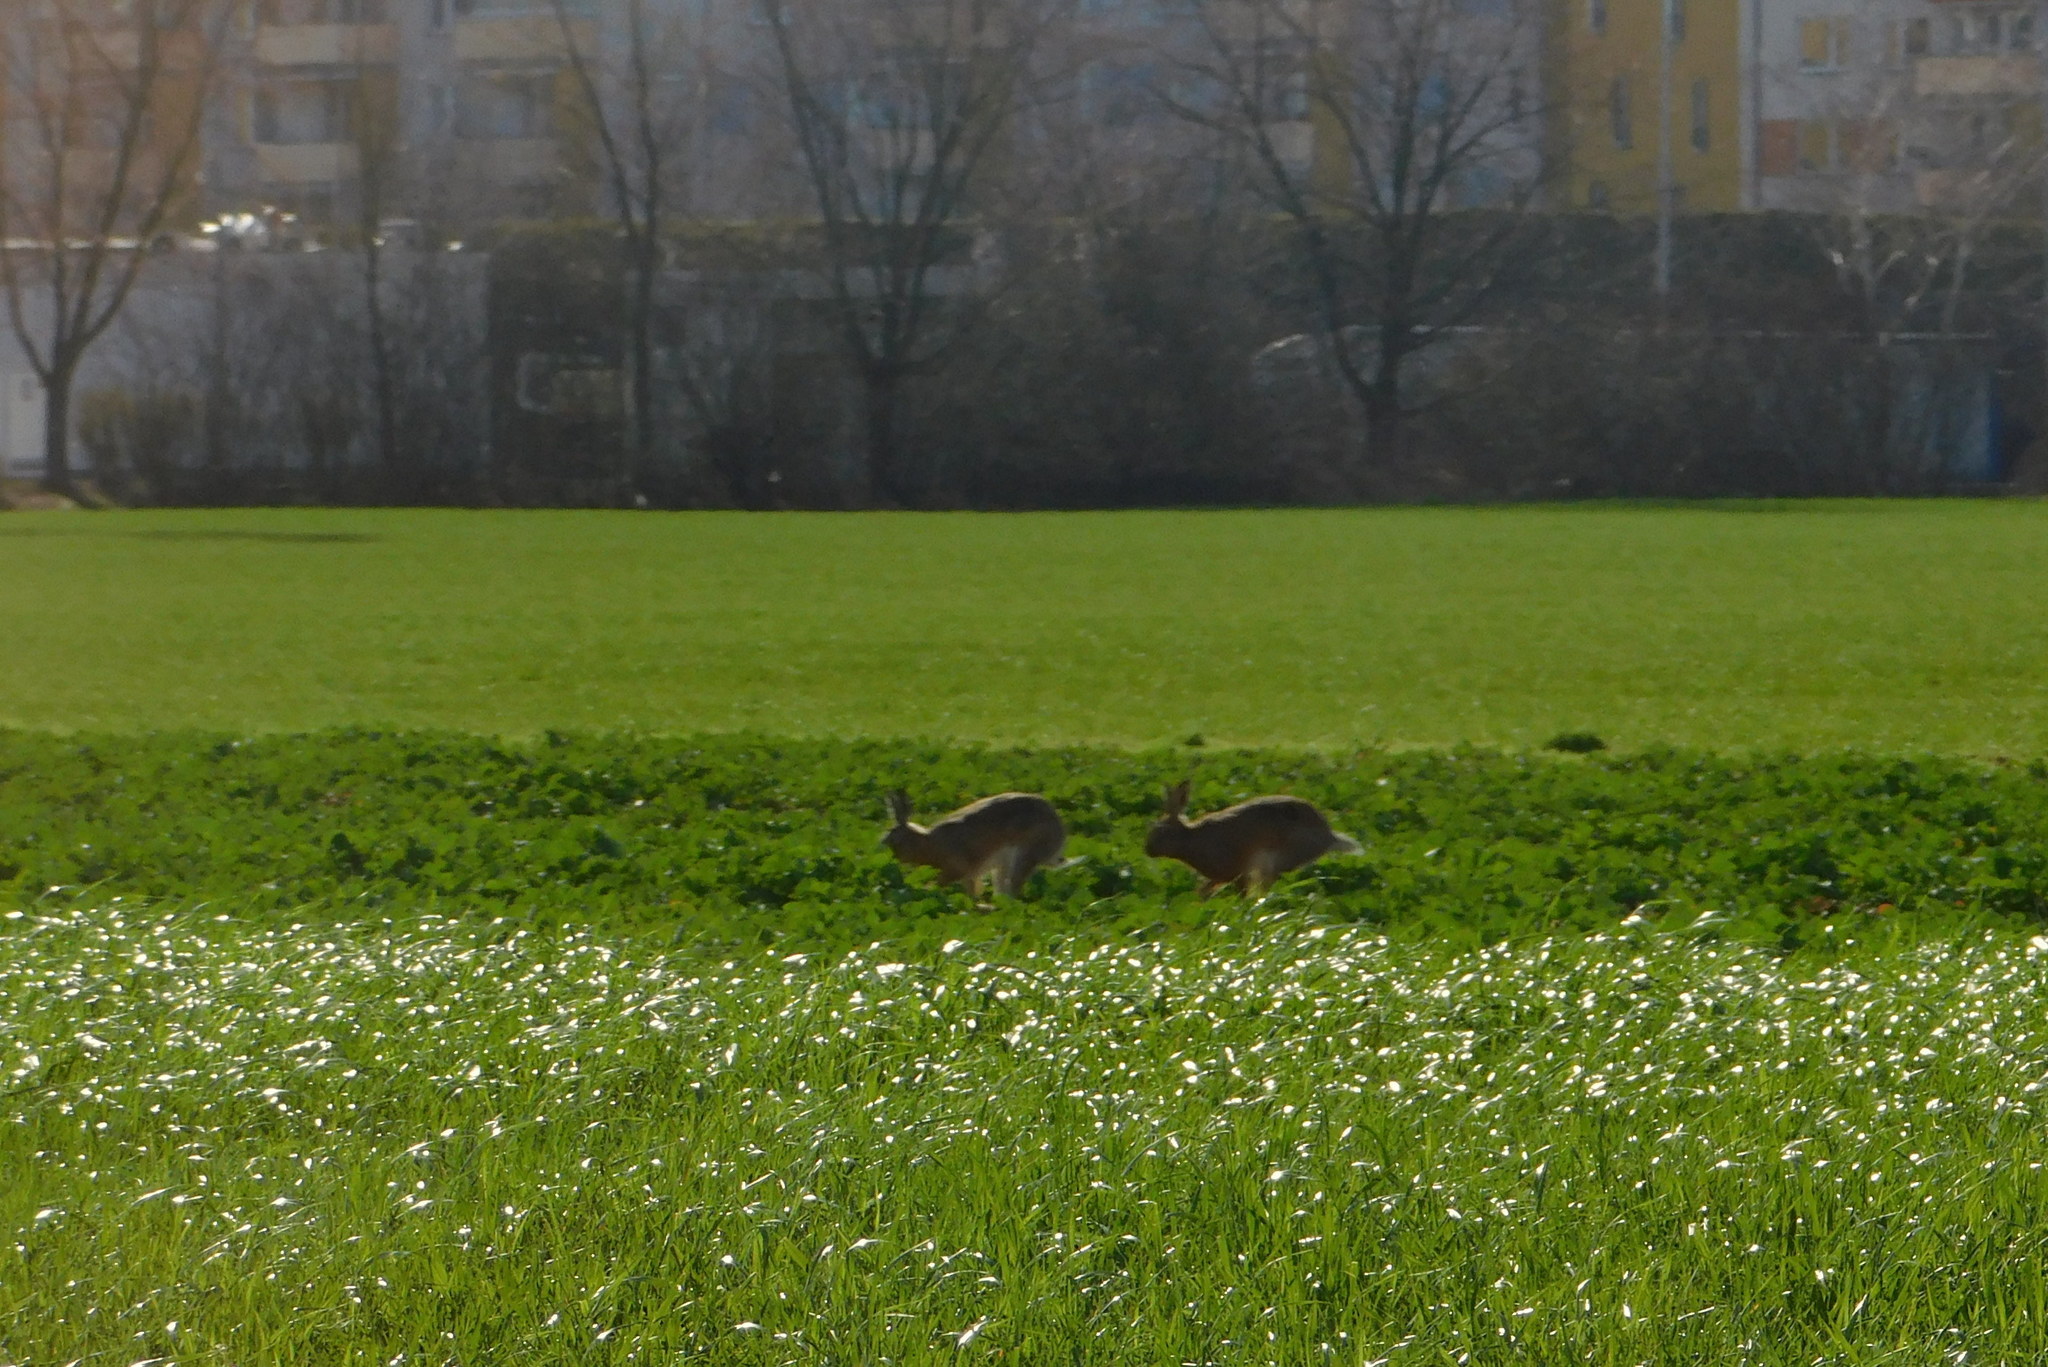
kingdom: Animalia
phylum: Chordata
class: Mammalia
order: Lagomorpha
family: Leporidae
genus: Lepus
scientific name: Lepus europaeus
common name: European hare
